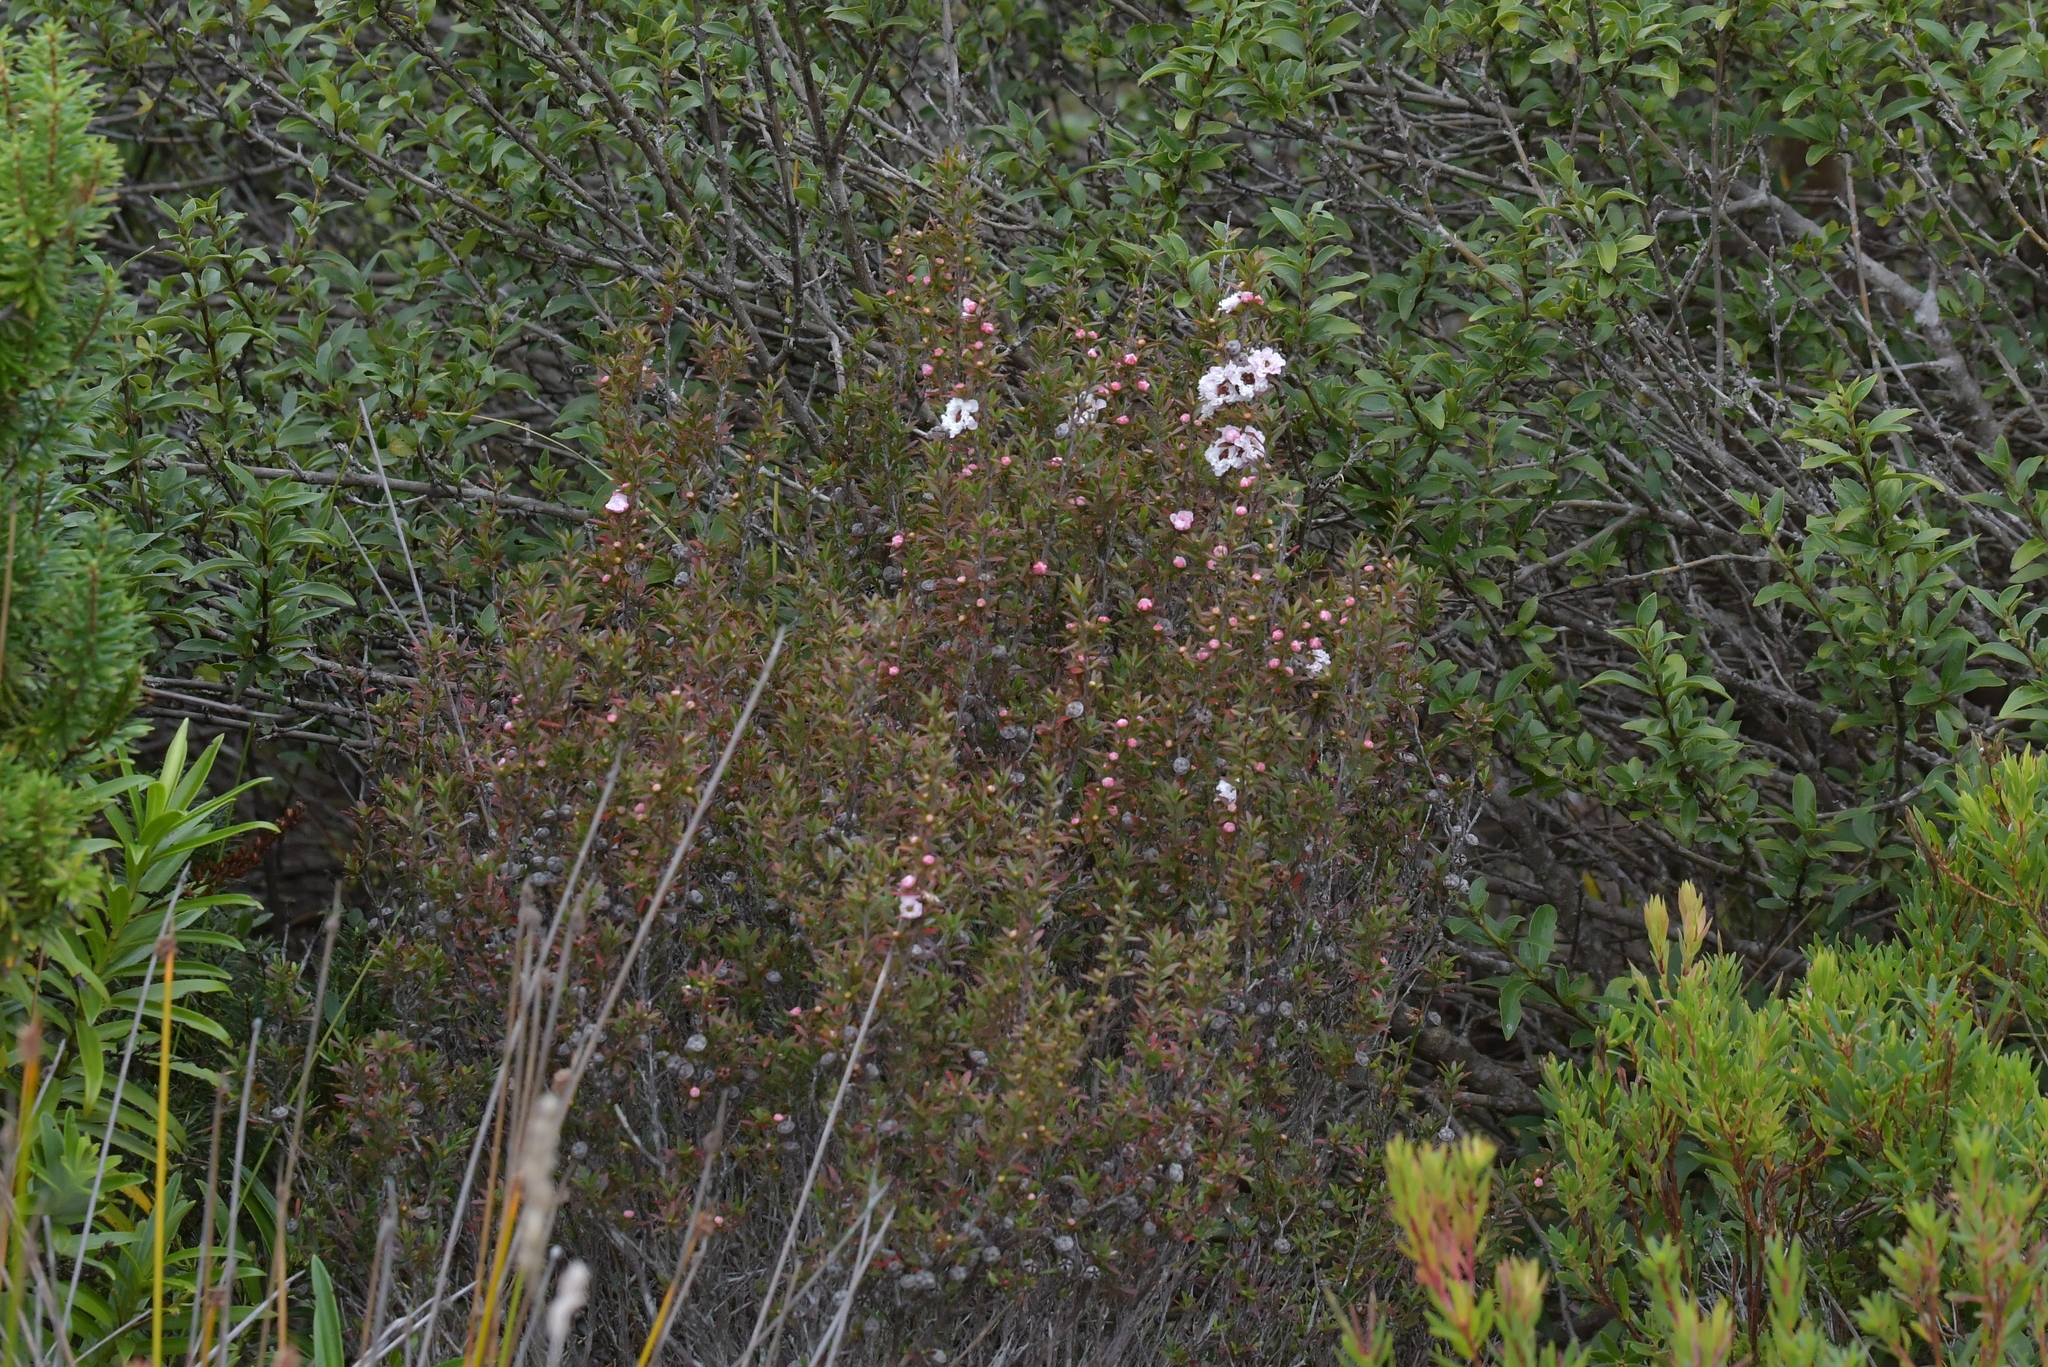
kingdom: Plantae
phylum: Tracheophyta
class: Magnoliopsida
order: Myrtales
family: Myrtaceae
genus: Leptospermum
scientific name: Leptospermum scoparium
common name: Broom tea-tree
